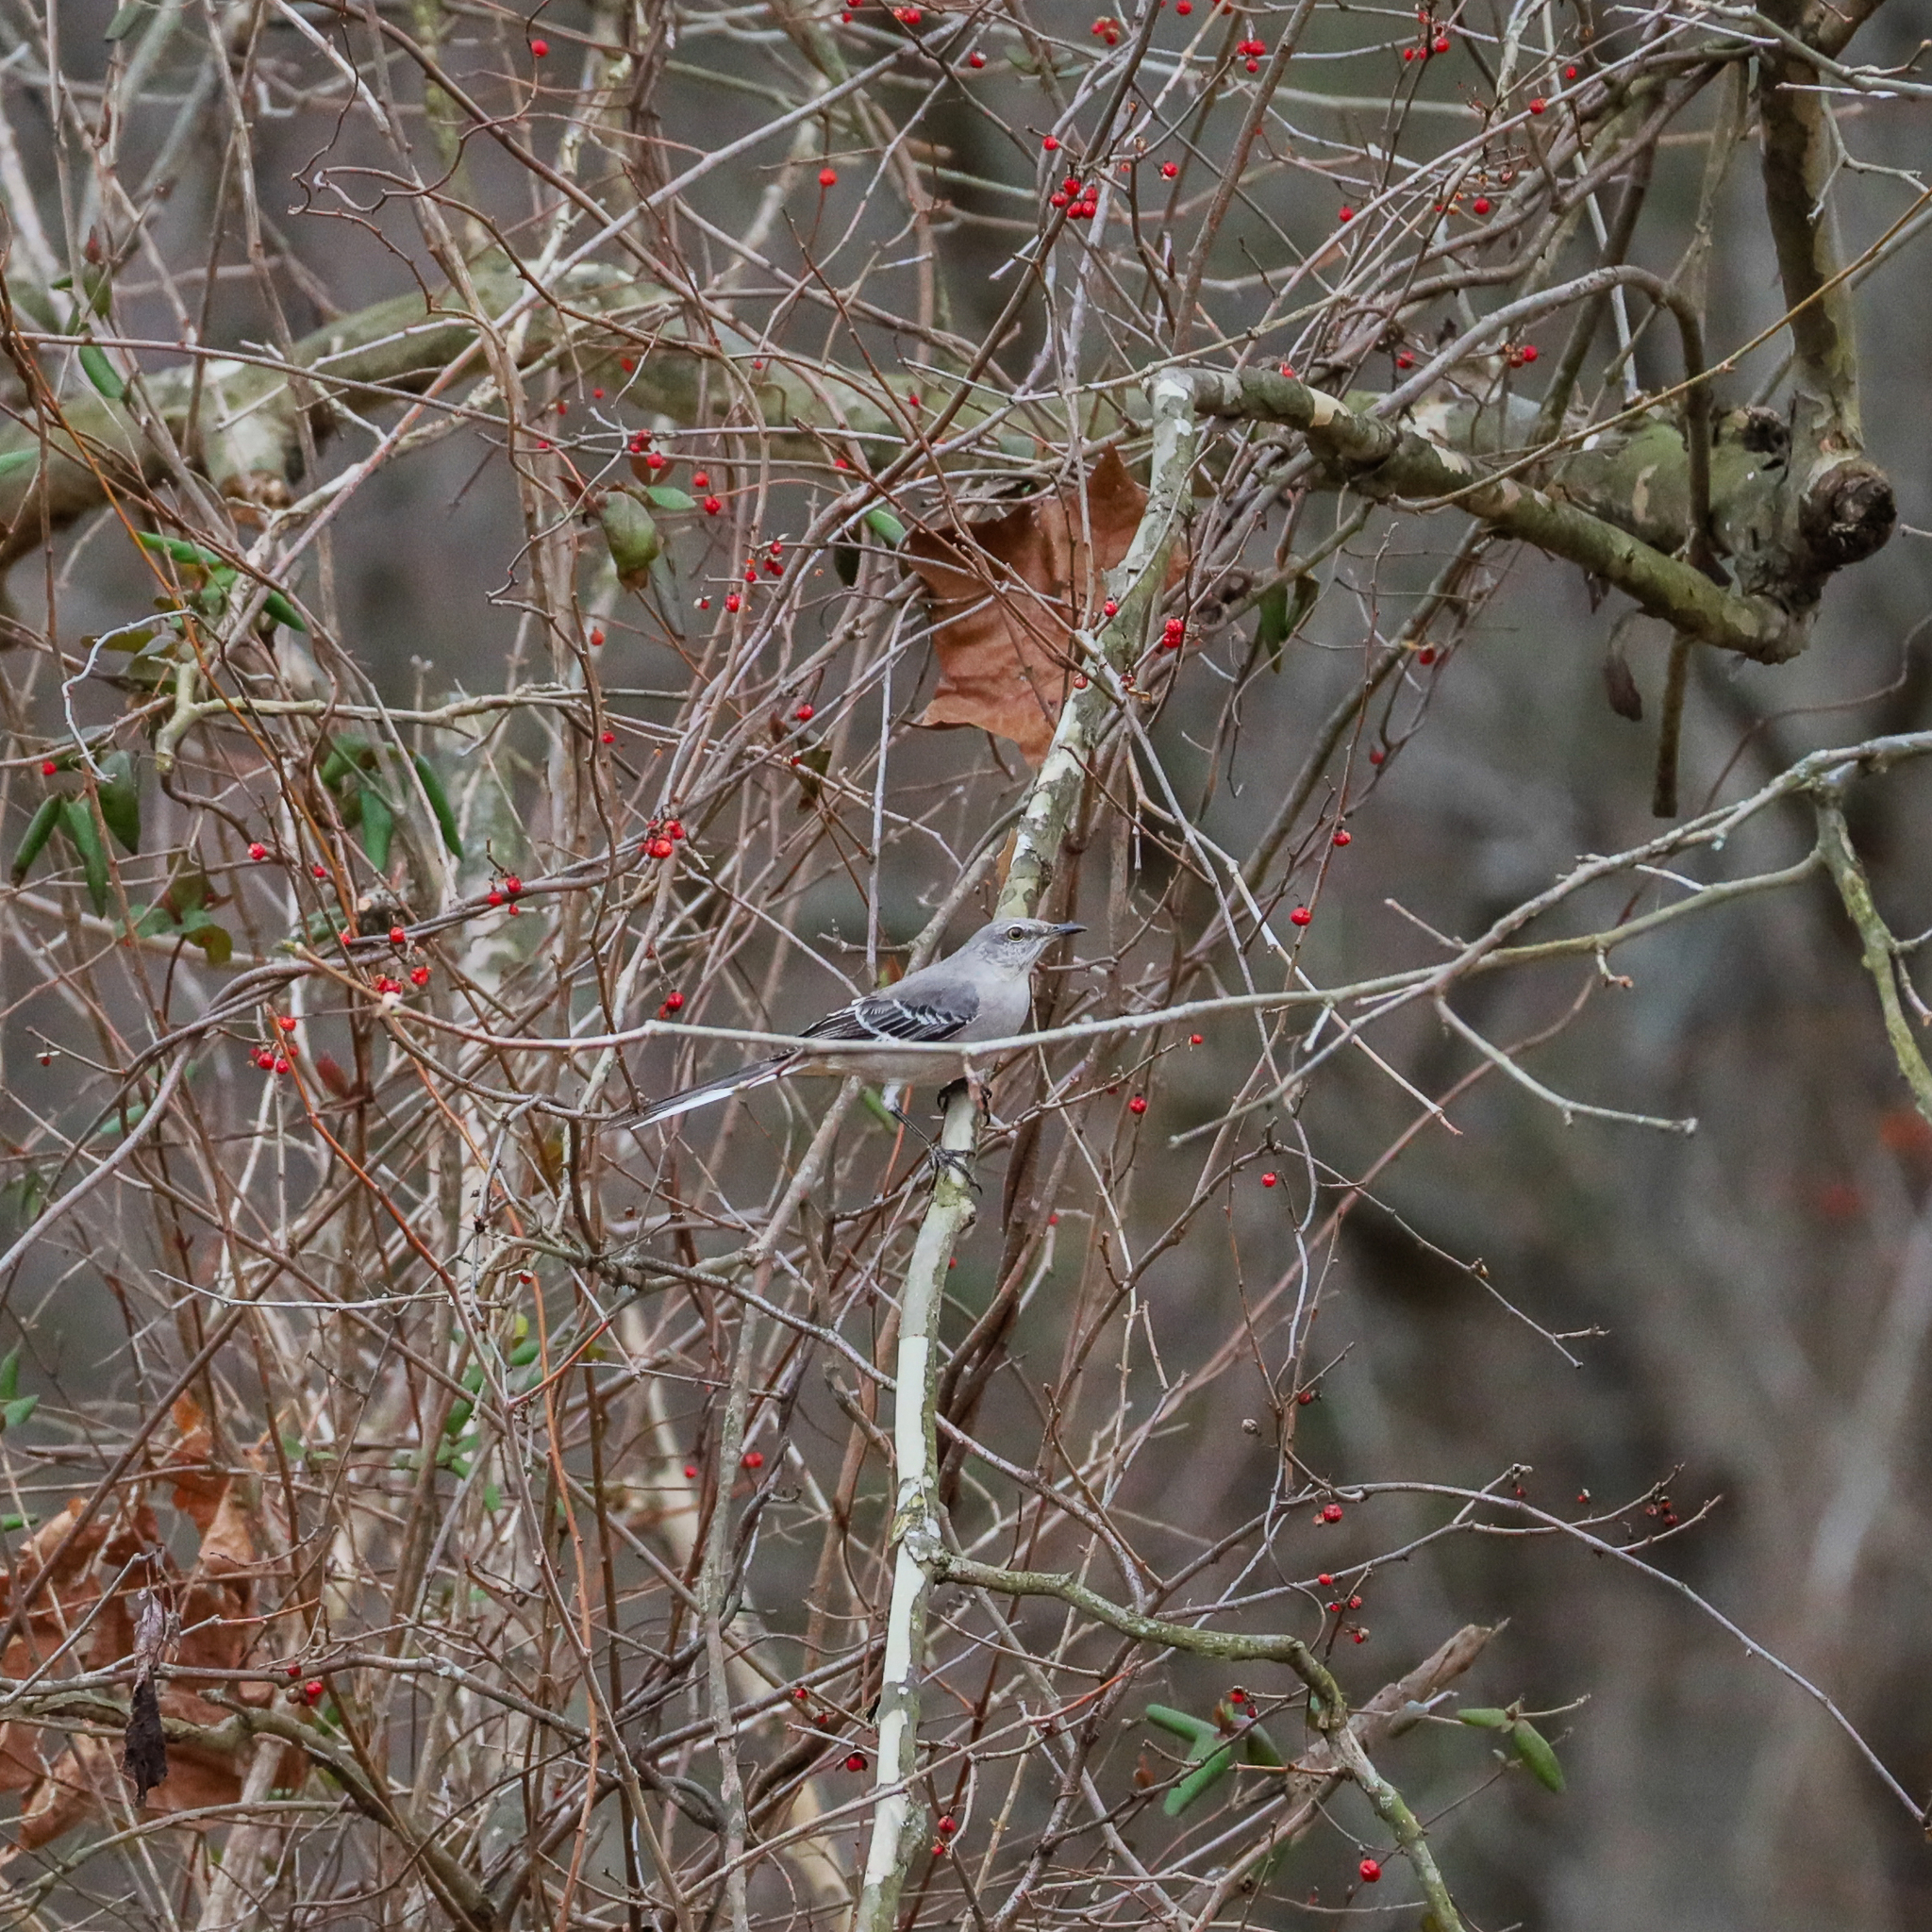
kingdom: Animalia
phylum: Chordata
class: Aves
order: Passeriformes
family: Mimidae
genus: Mimus
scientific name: Mimus polyglottos
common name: Northern mockingbird
